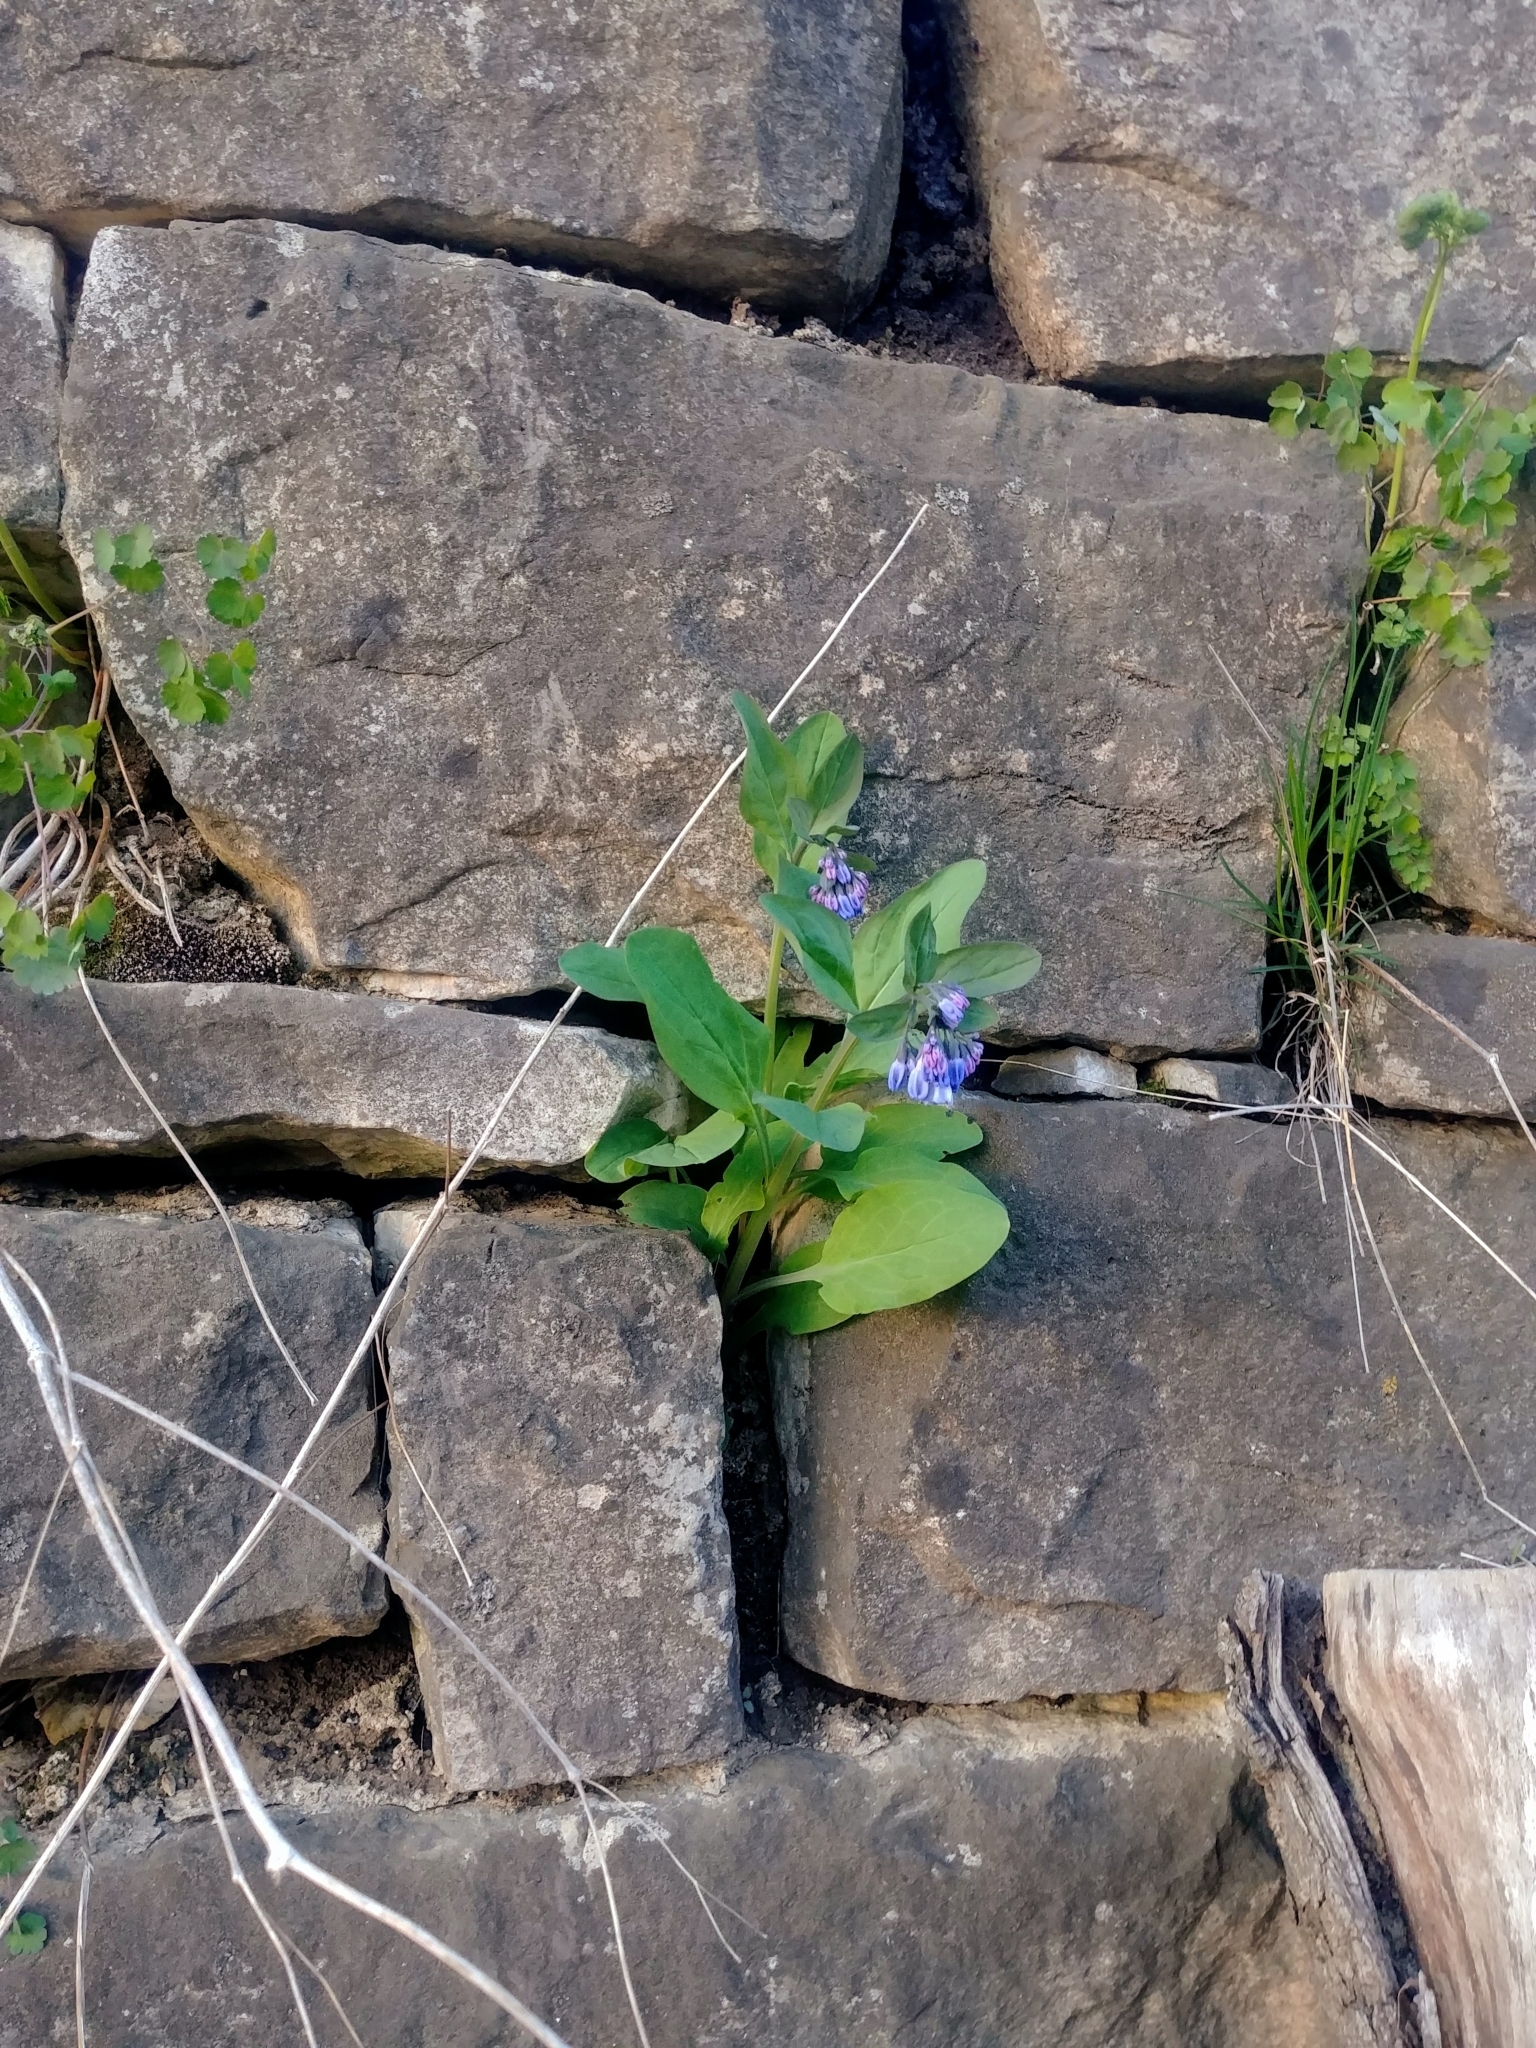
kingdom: Plantae
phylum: Tracheophyta
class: Magnoliopsida
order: Boraginales
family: Boraginaceae
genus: Mertensia
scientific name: Mertensia virginica
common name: Virginia bluebells
